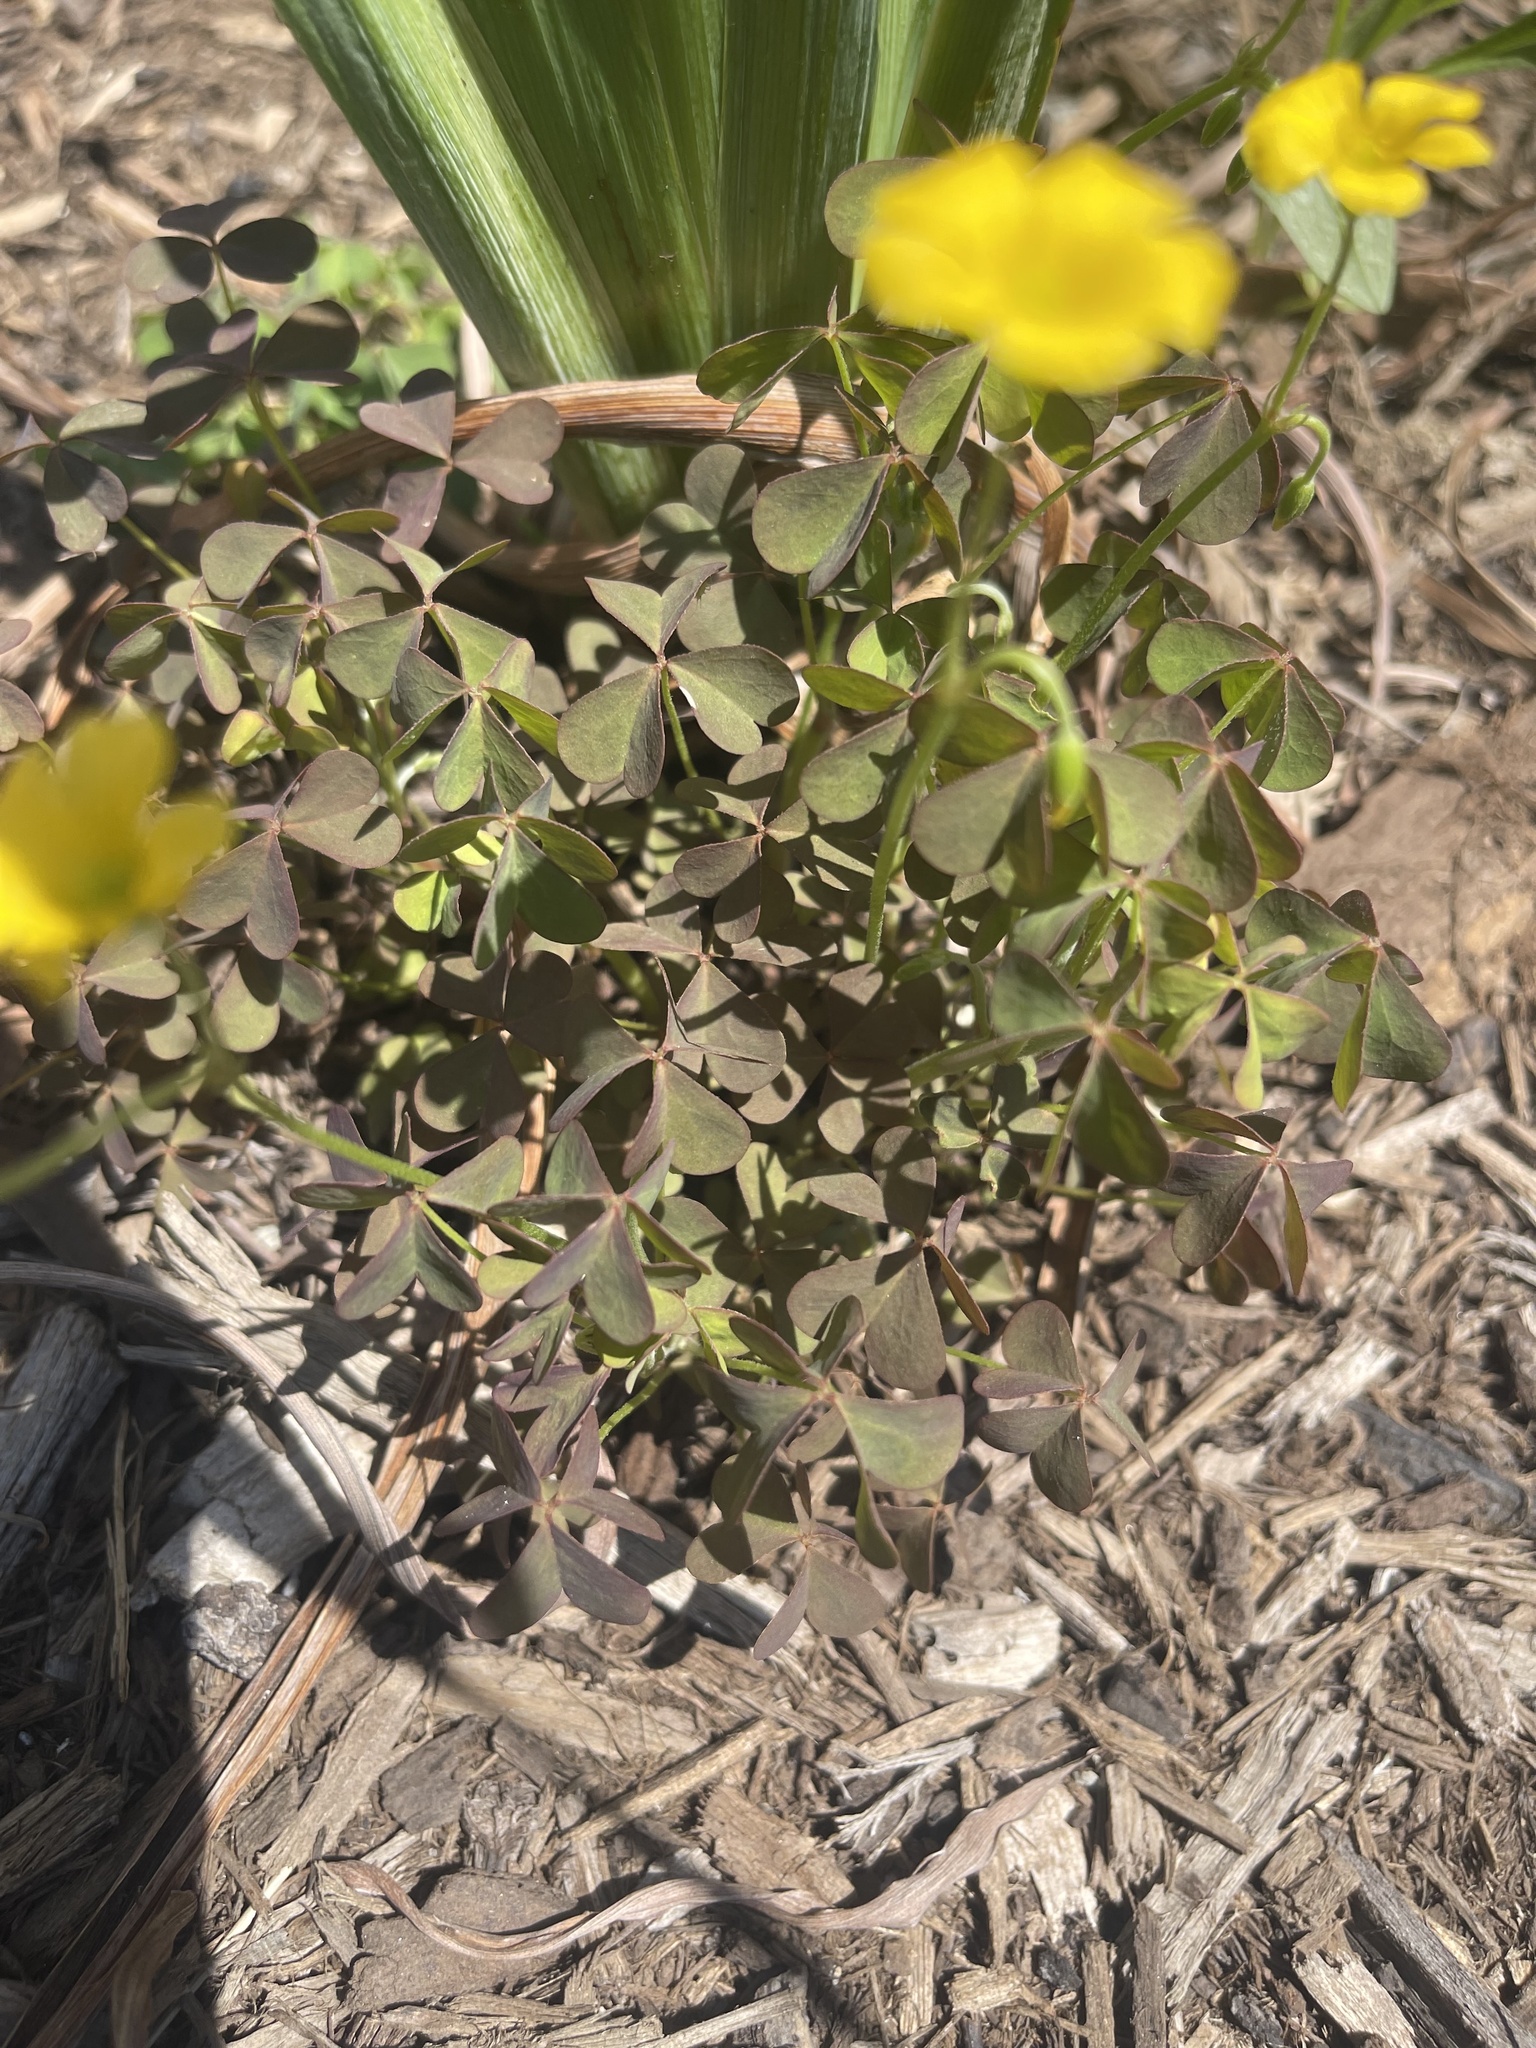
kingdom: Plantae
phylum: Tracheophyta
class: Magnoliopsida
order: Oxalidales
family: Oxalidaceae
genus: Oxalis
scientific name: Oxalis corniculata
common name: Procumbent yellow-sorrel
